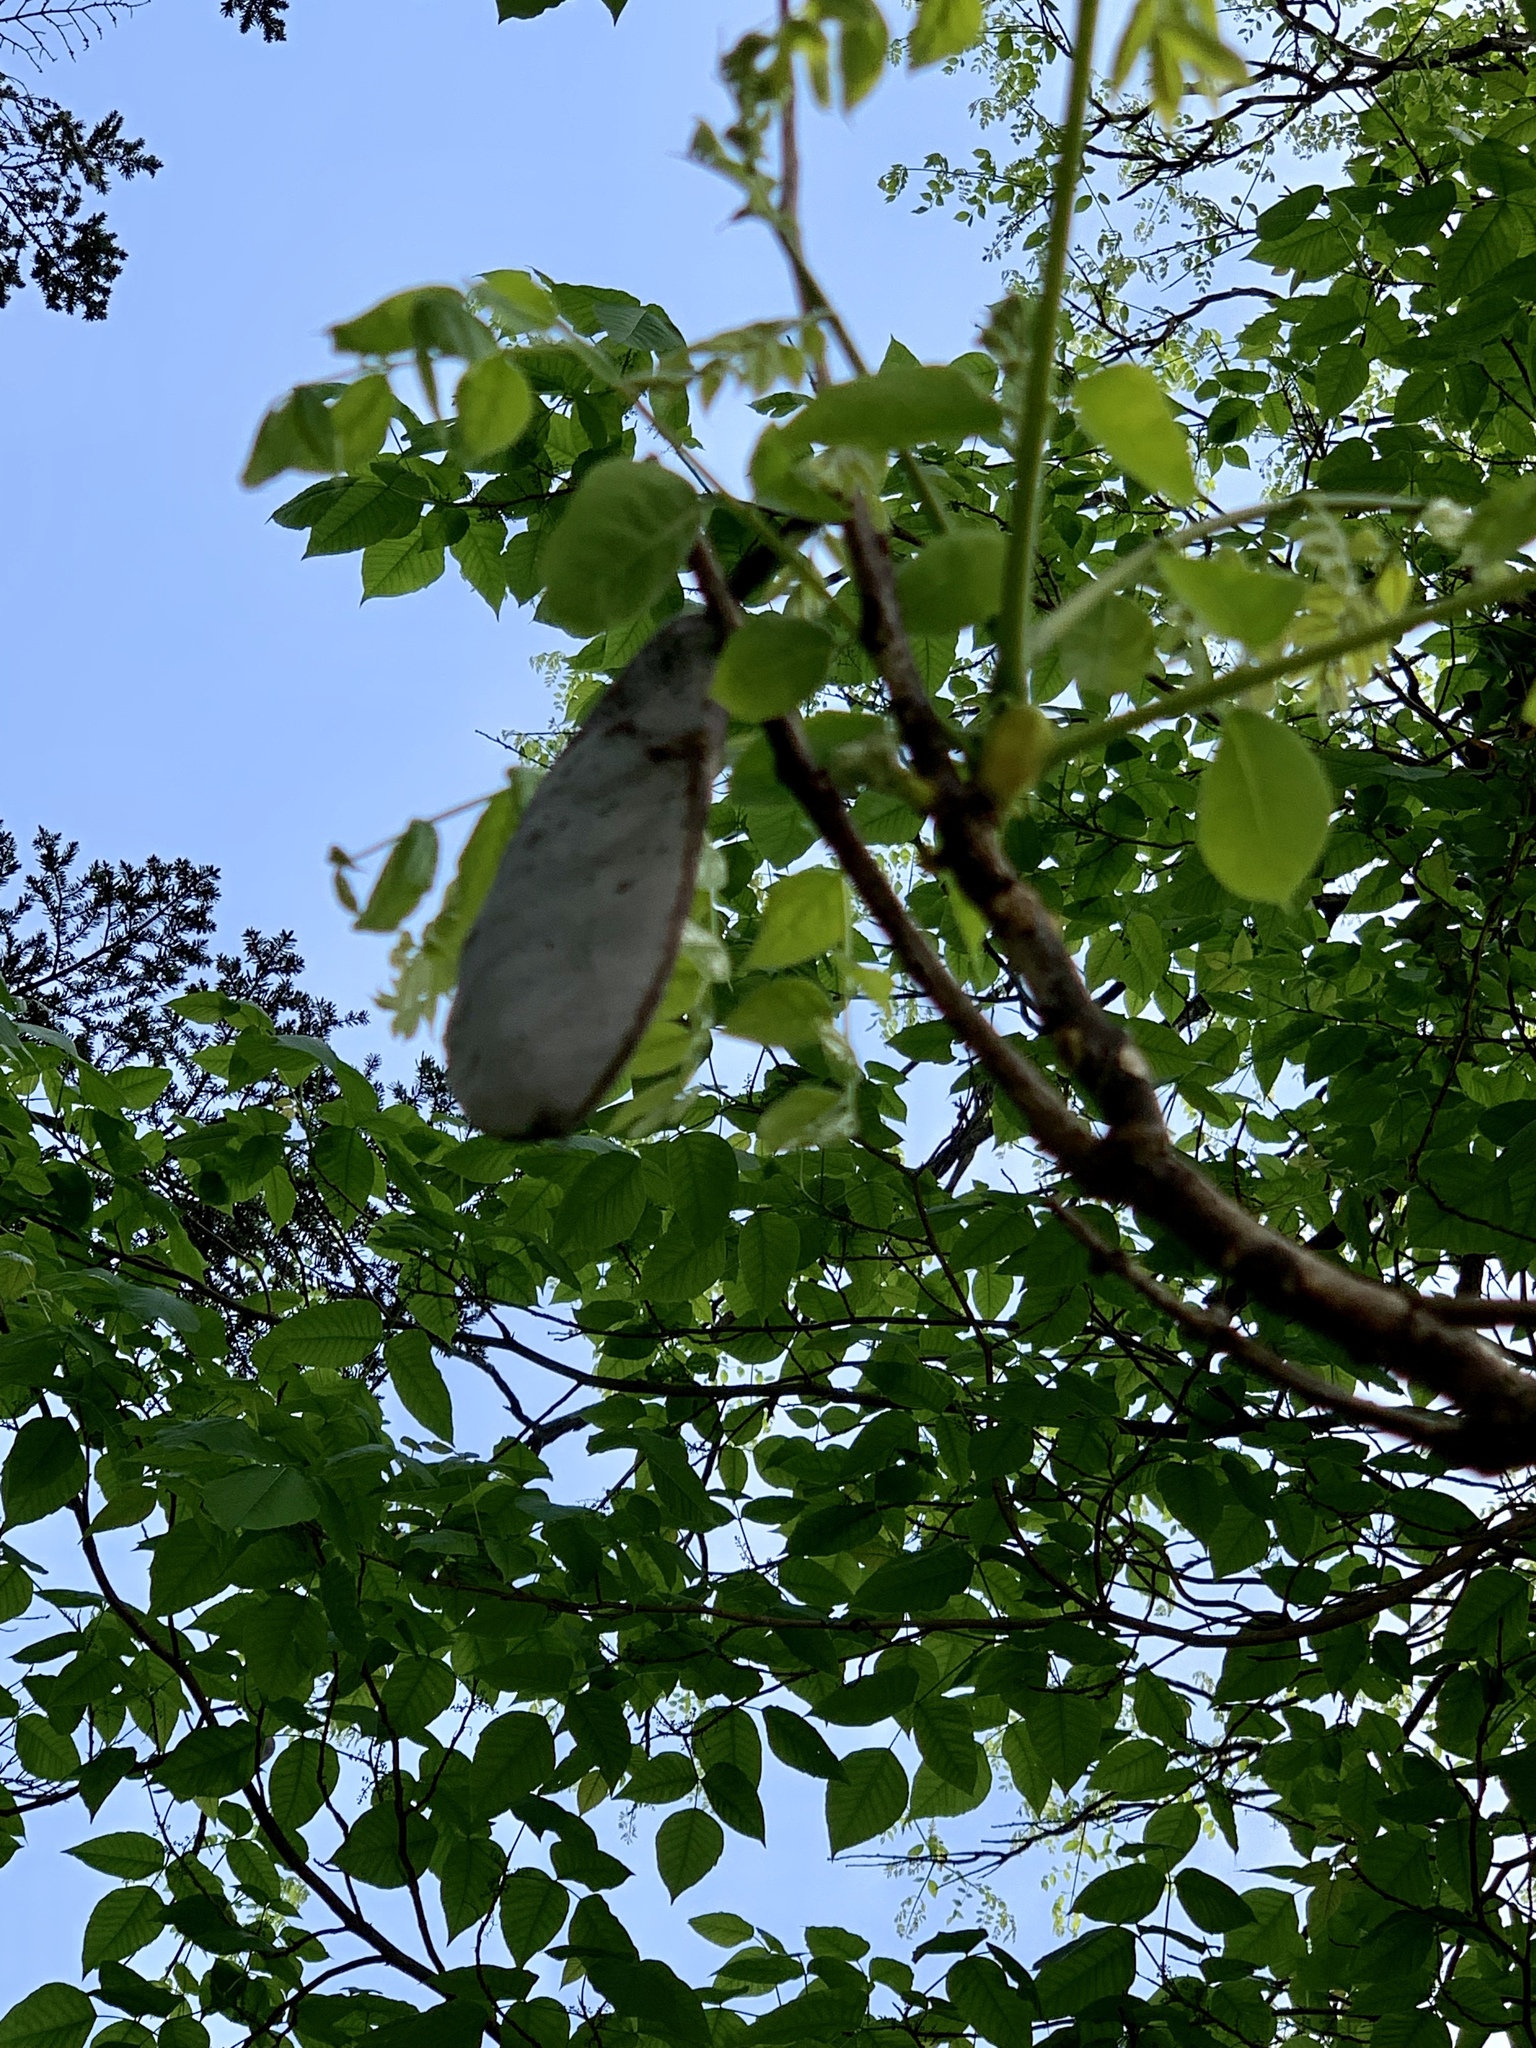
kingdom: Plantae
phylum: Tracheophyta
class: Magnoliopsida
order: Fabales
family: Fabaceae
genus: Gymnocladus
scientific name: Gymnocladus dioicus
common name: Kentucky coffee-tree
